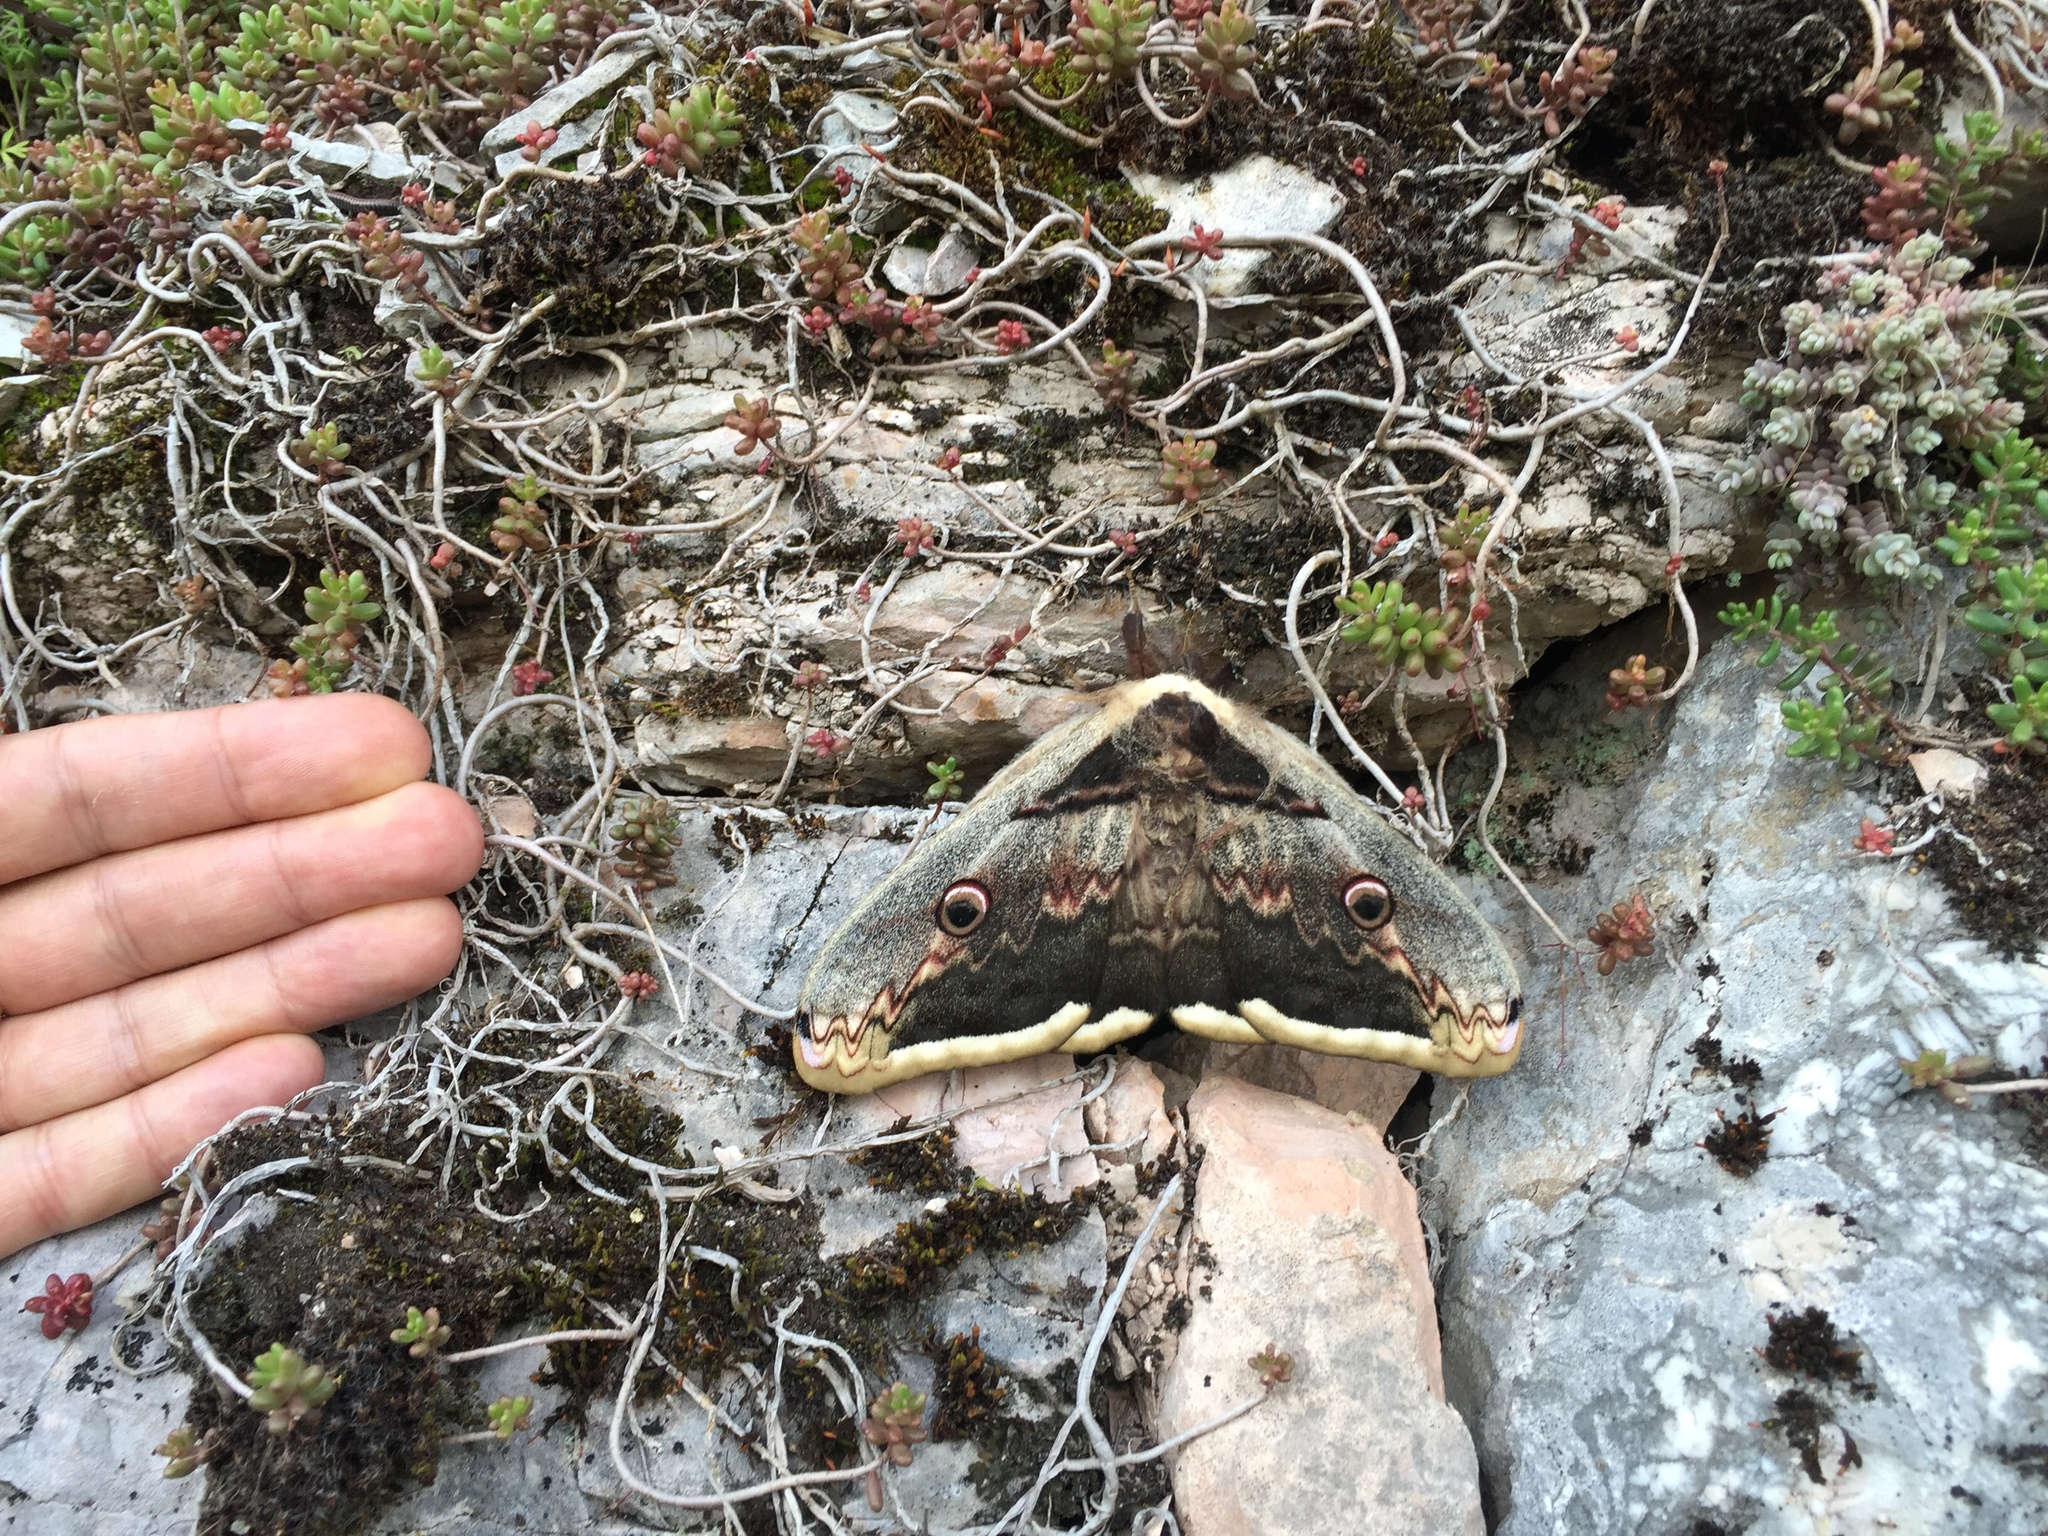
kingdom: Animalia
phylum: Arthropoda
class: Insecta
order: Lepidoptera
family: Saturniidae
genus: Saturnia
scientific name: Saturnia pyri
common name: Great peacock moth
